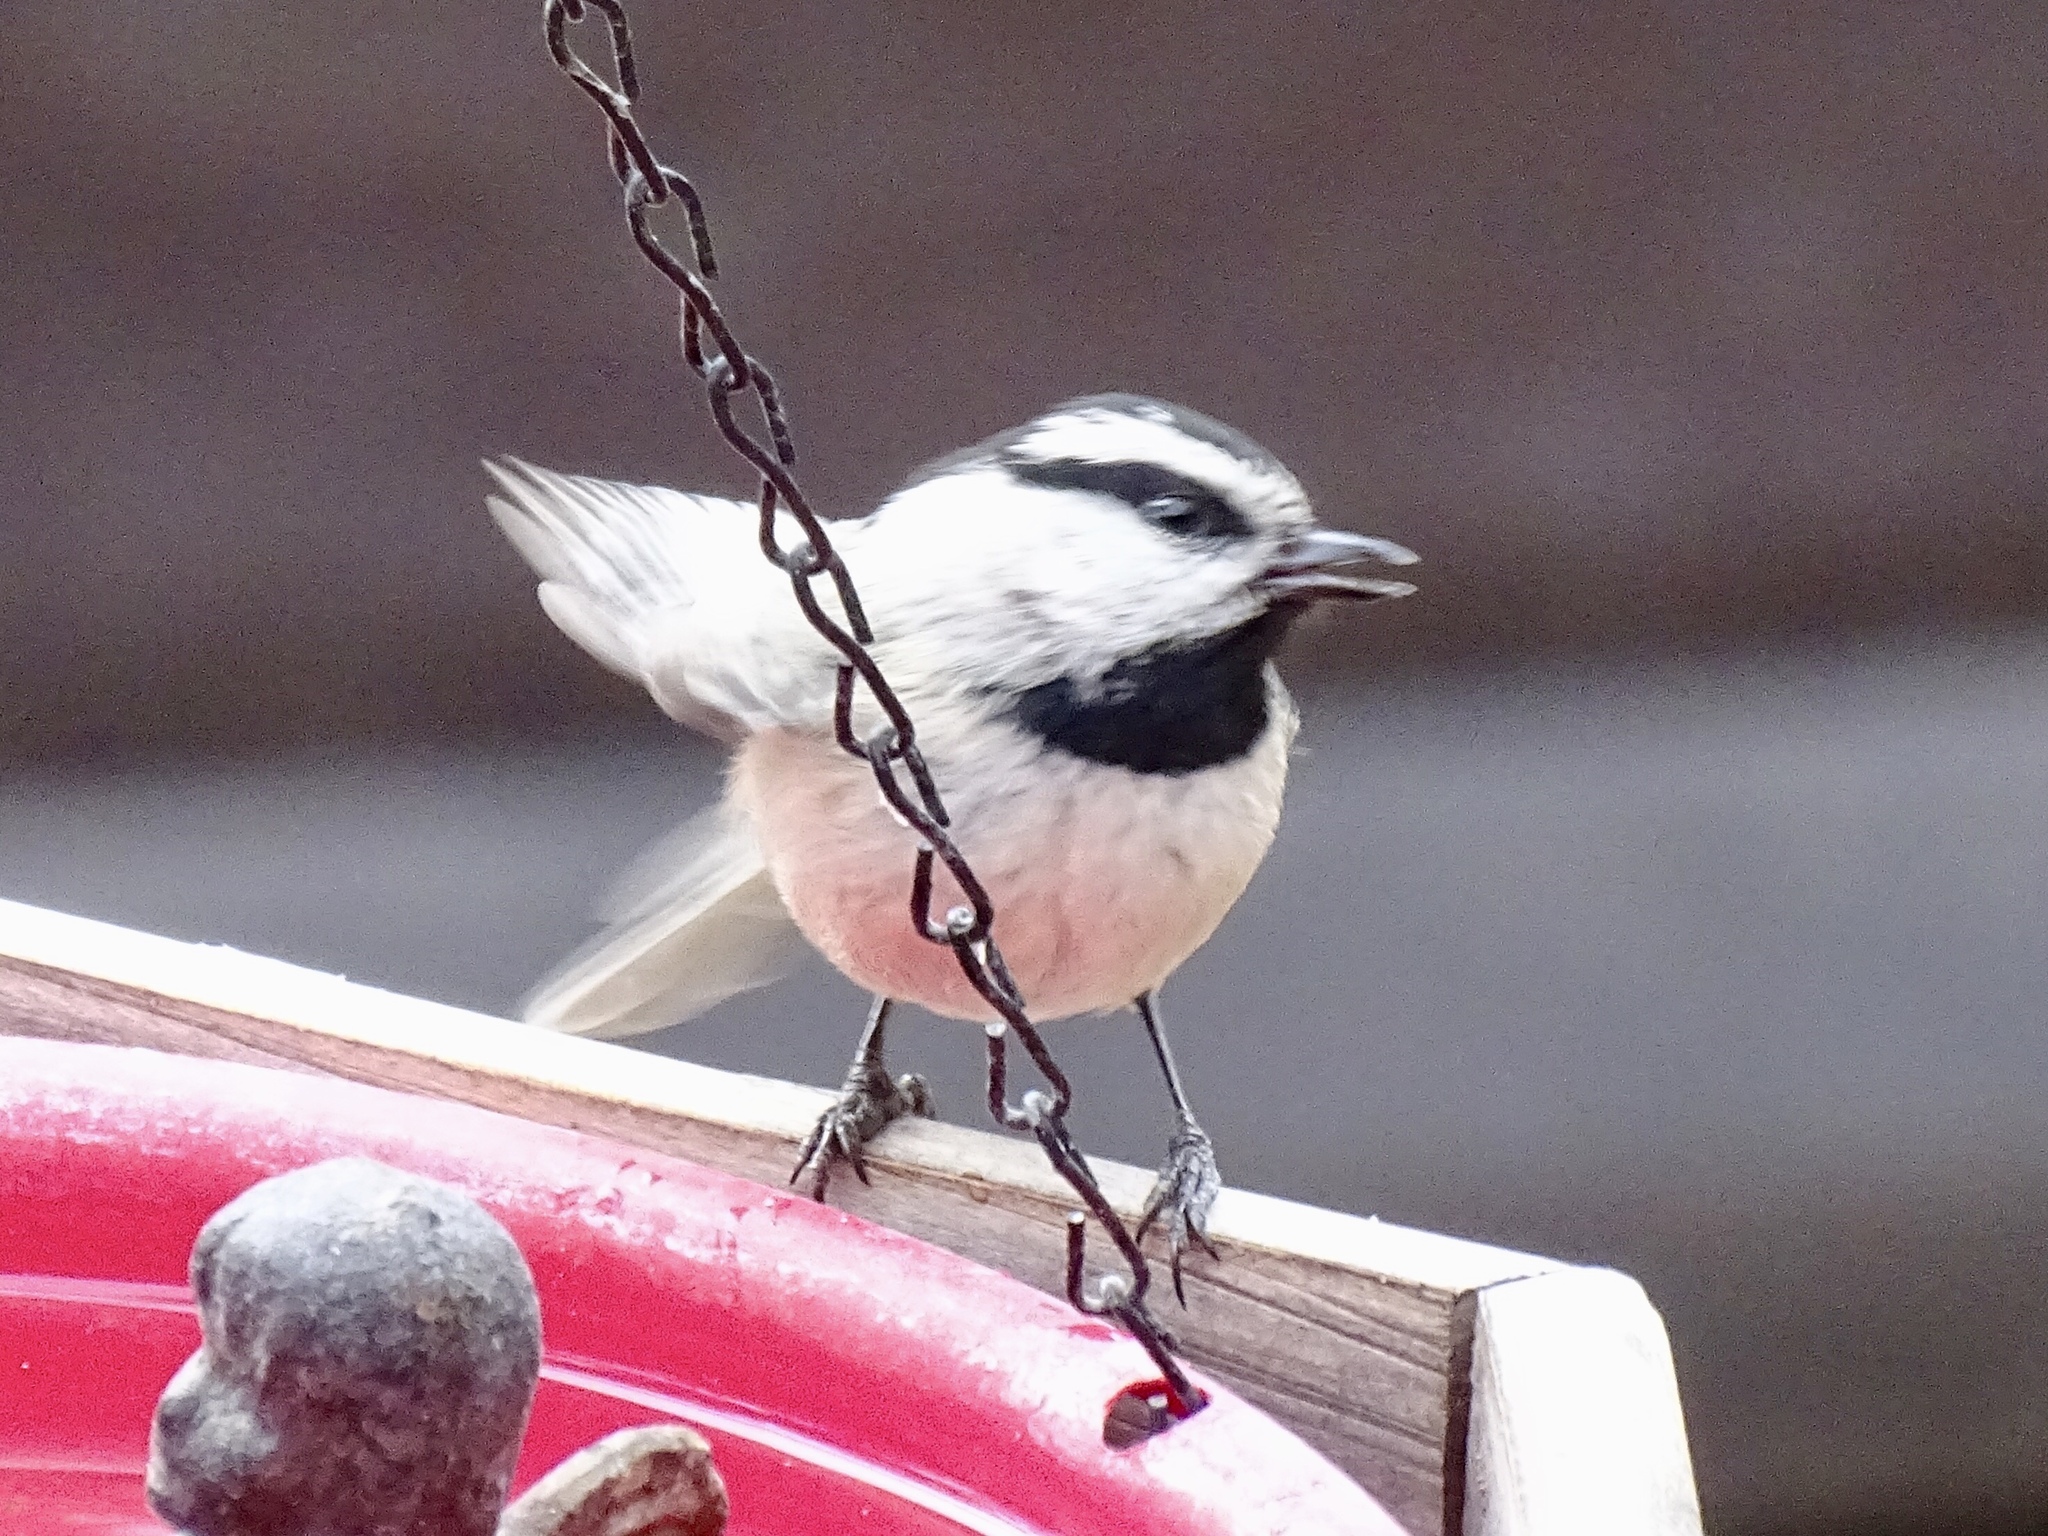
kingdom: Animalia
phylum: Chordata
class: Aves
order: Passeriformes
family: Paridae
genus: Poecile
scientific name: Poecile gambeli
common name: Mountain chickadee
